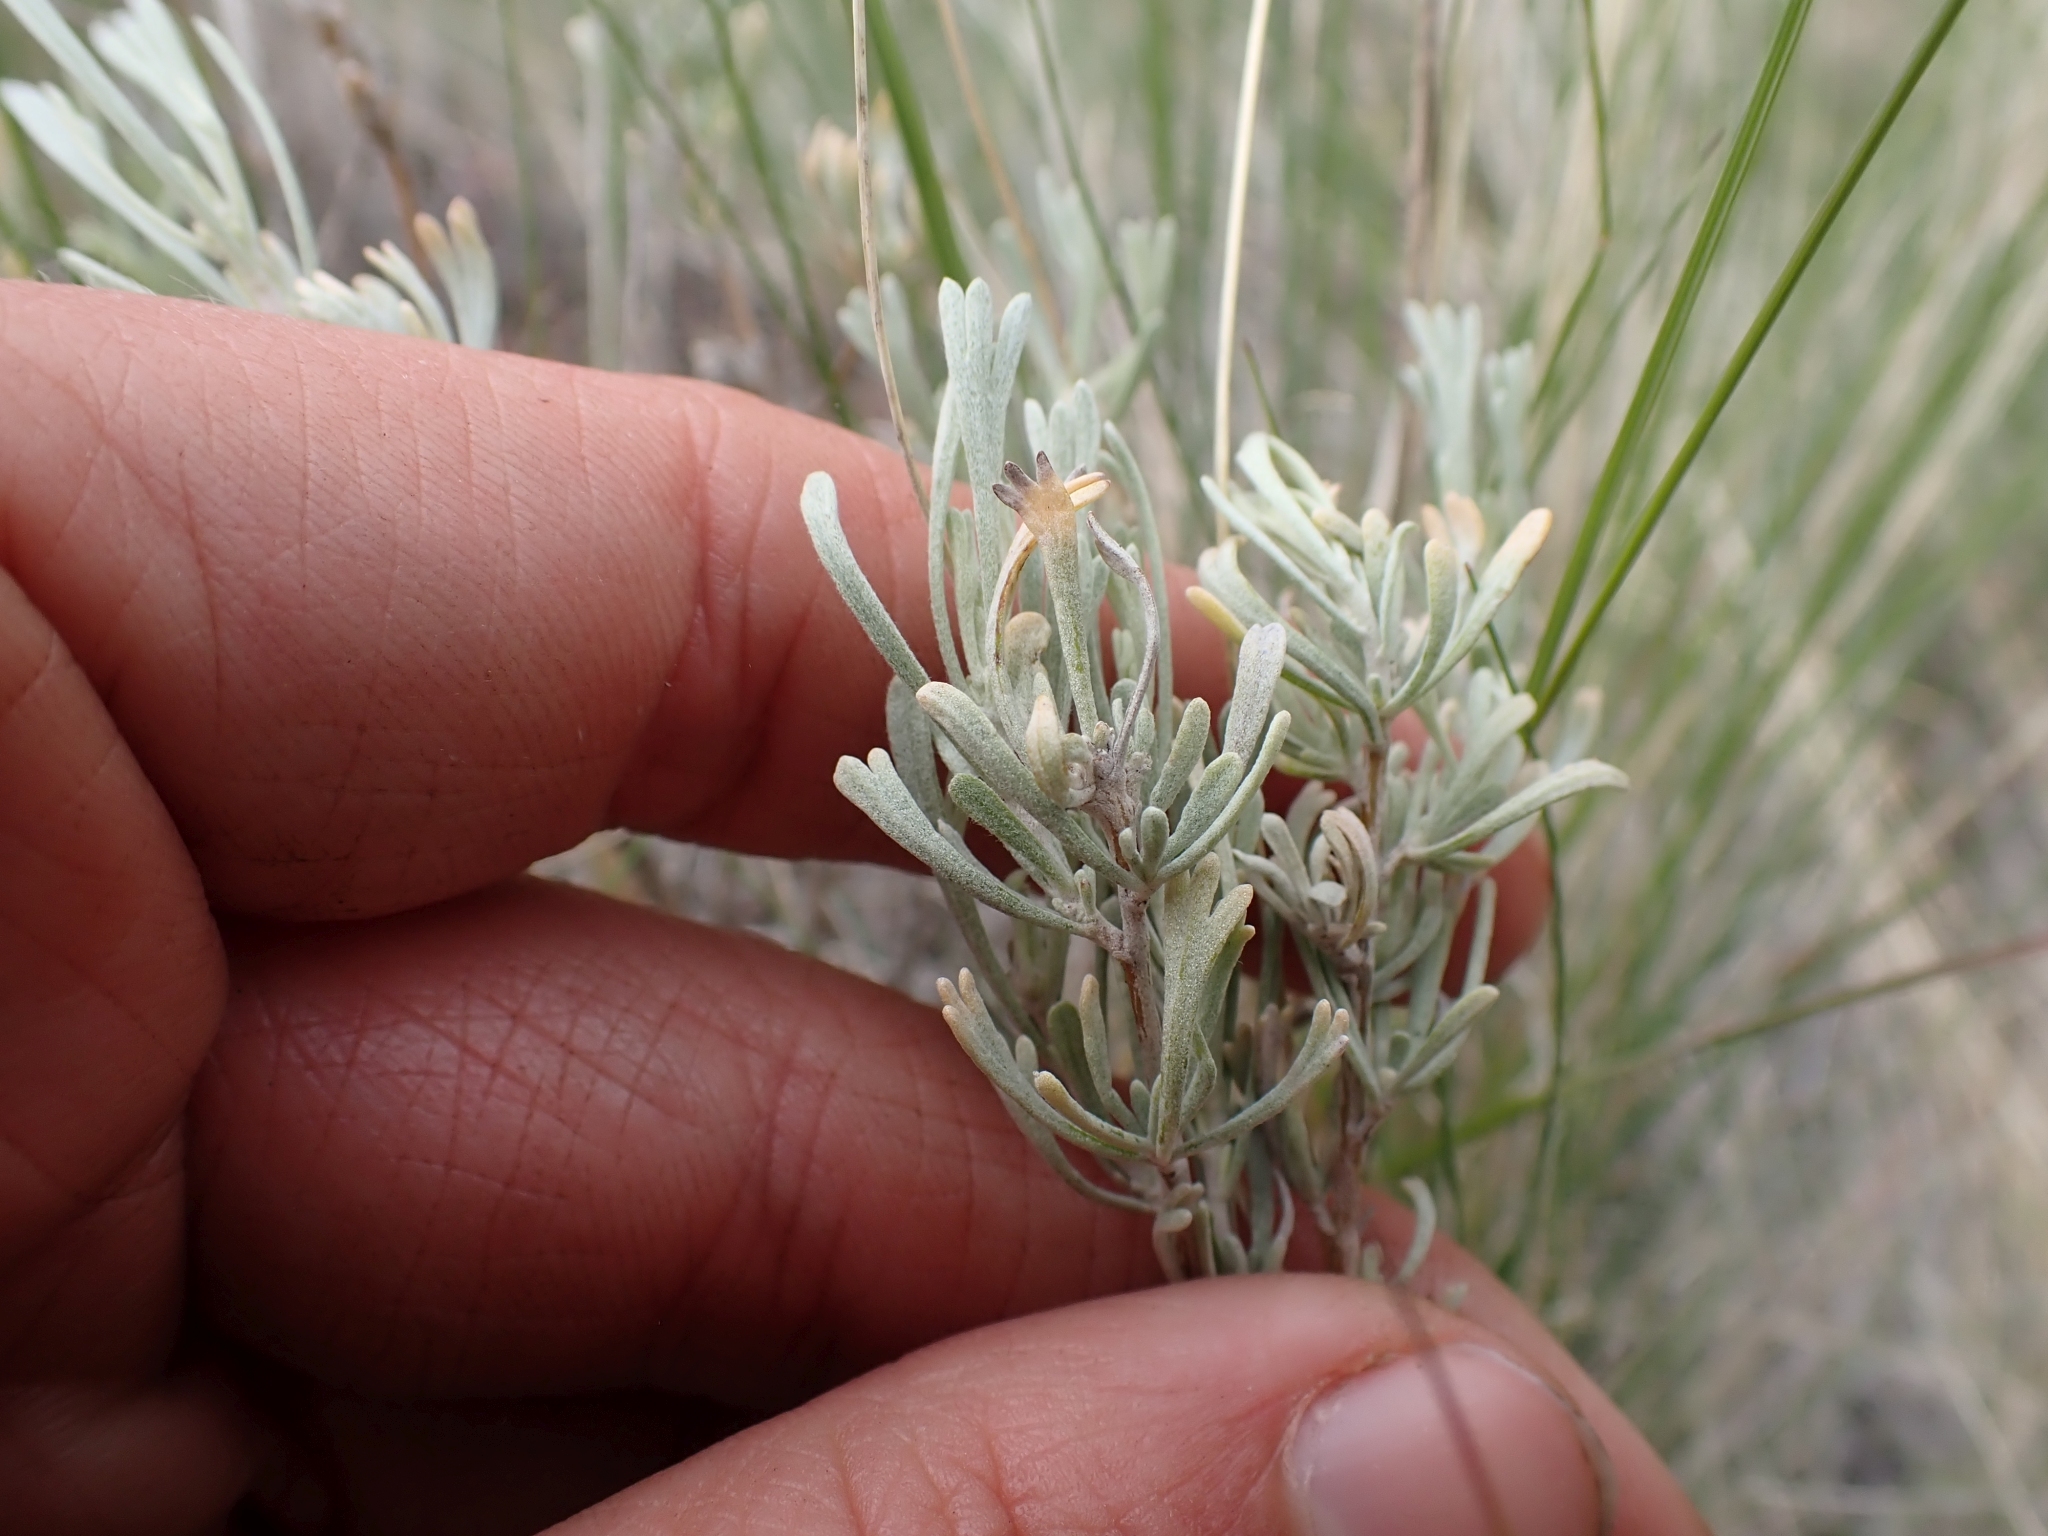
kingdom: Plantae
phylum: Tracheophyta
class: Magnoliopsida
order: Asterales
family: Asteraceae
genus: Artemisia
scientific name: Artemisia tridentata
